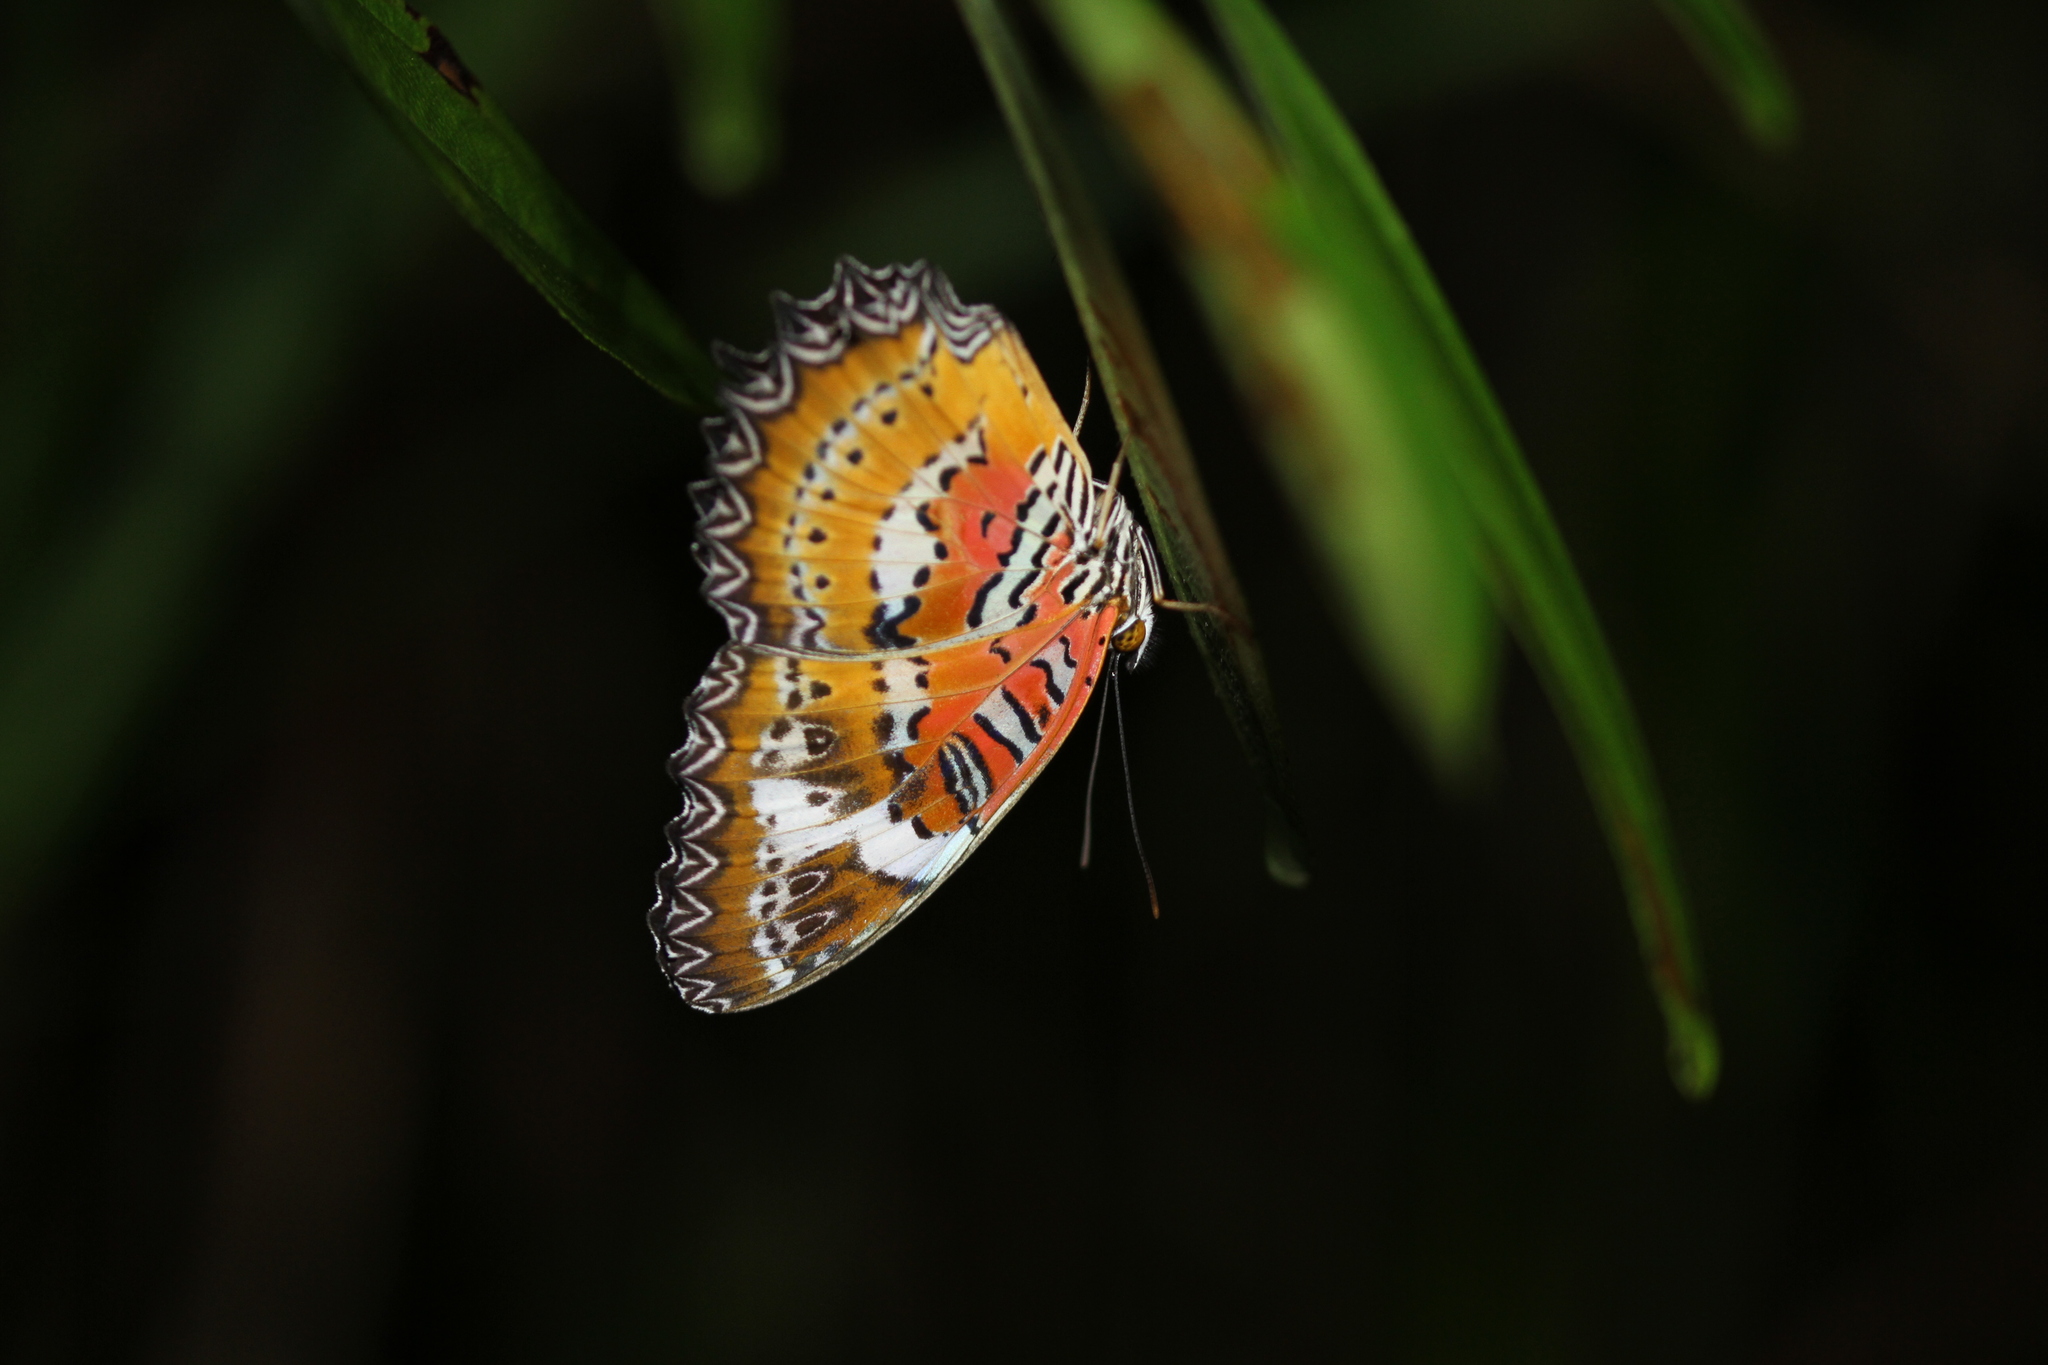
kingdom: Animalia
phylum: Arthropoda
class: Insecta
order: Lepidoptera
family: Nymphalidae
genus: Cethosia
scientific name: Cethosia penthesilea
